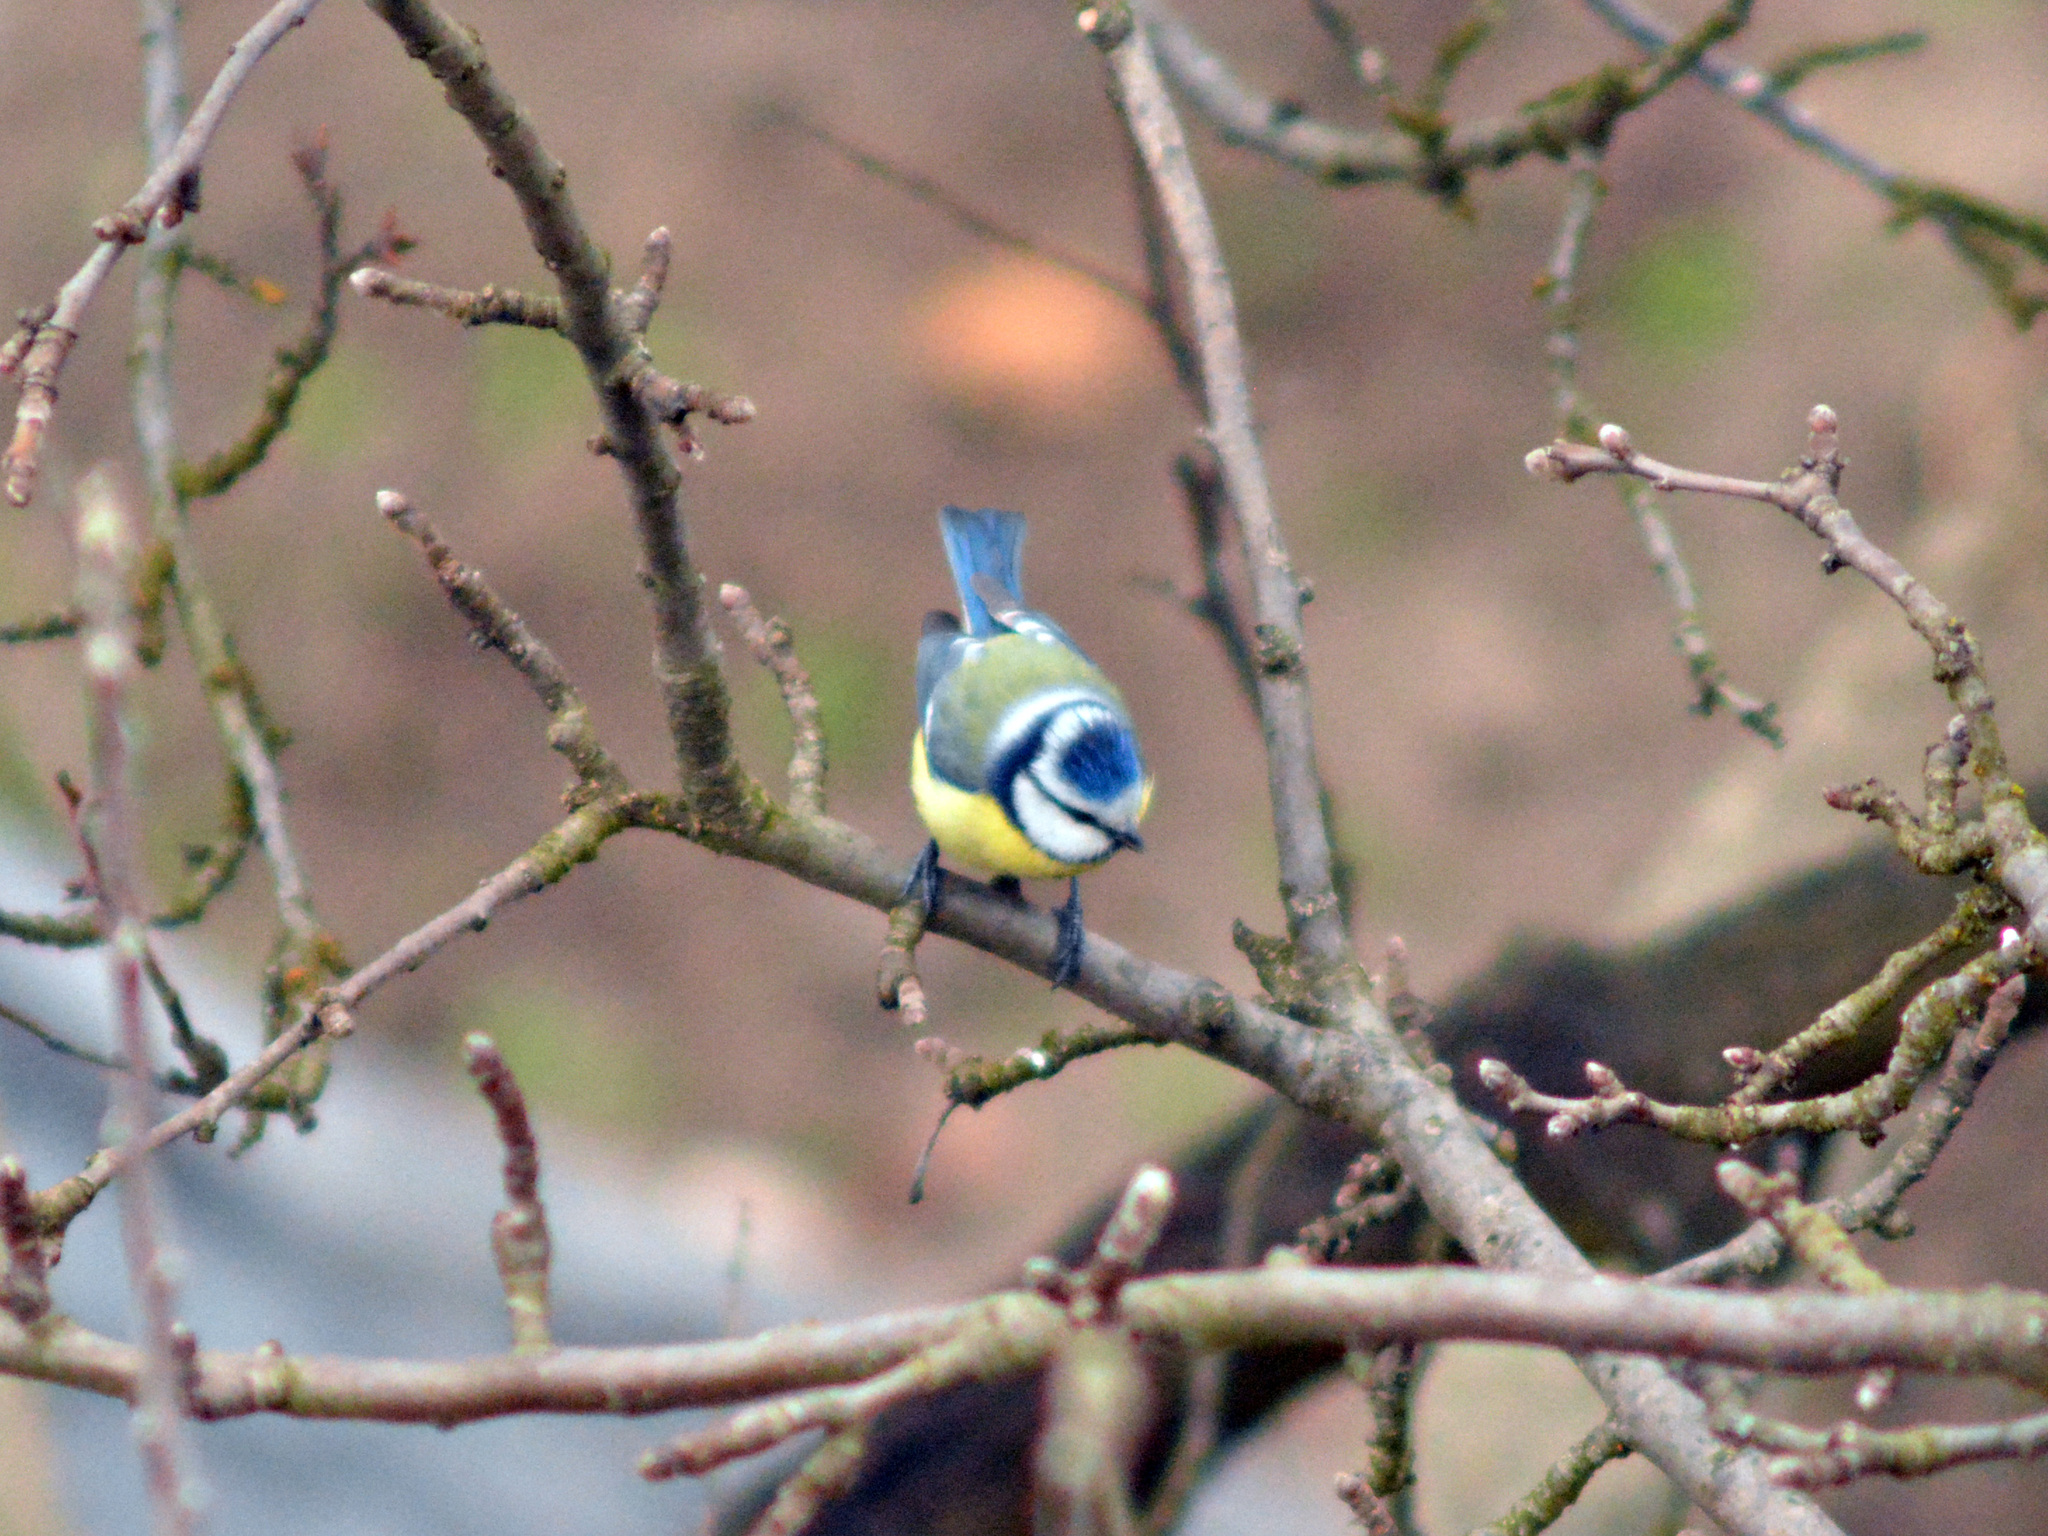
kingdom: Animalia
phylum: Chordata
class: Aves
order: Passeriformes
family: Paridae
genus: Cyanistes
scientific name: Cyanistes caeruleus
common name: Eurasian blue tit
